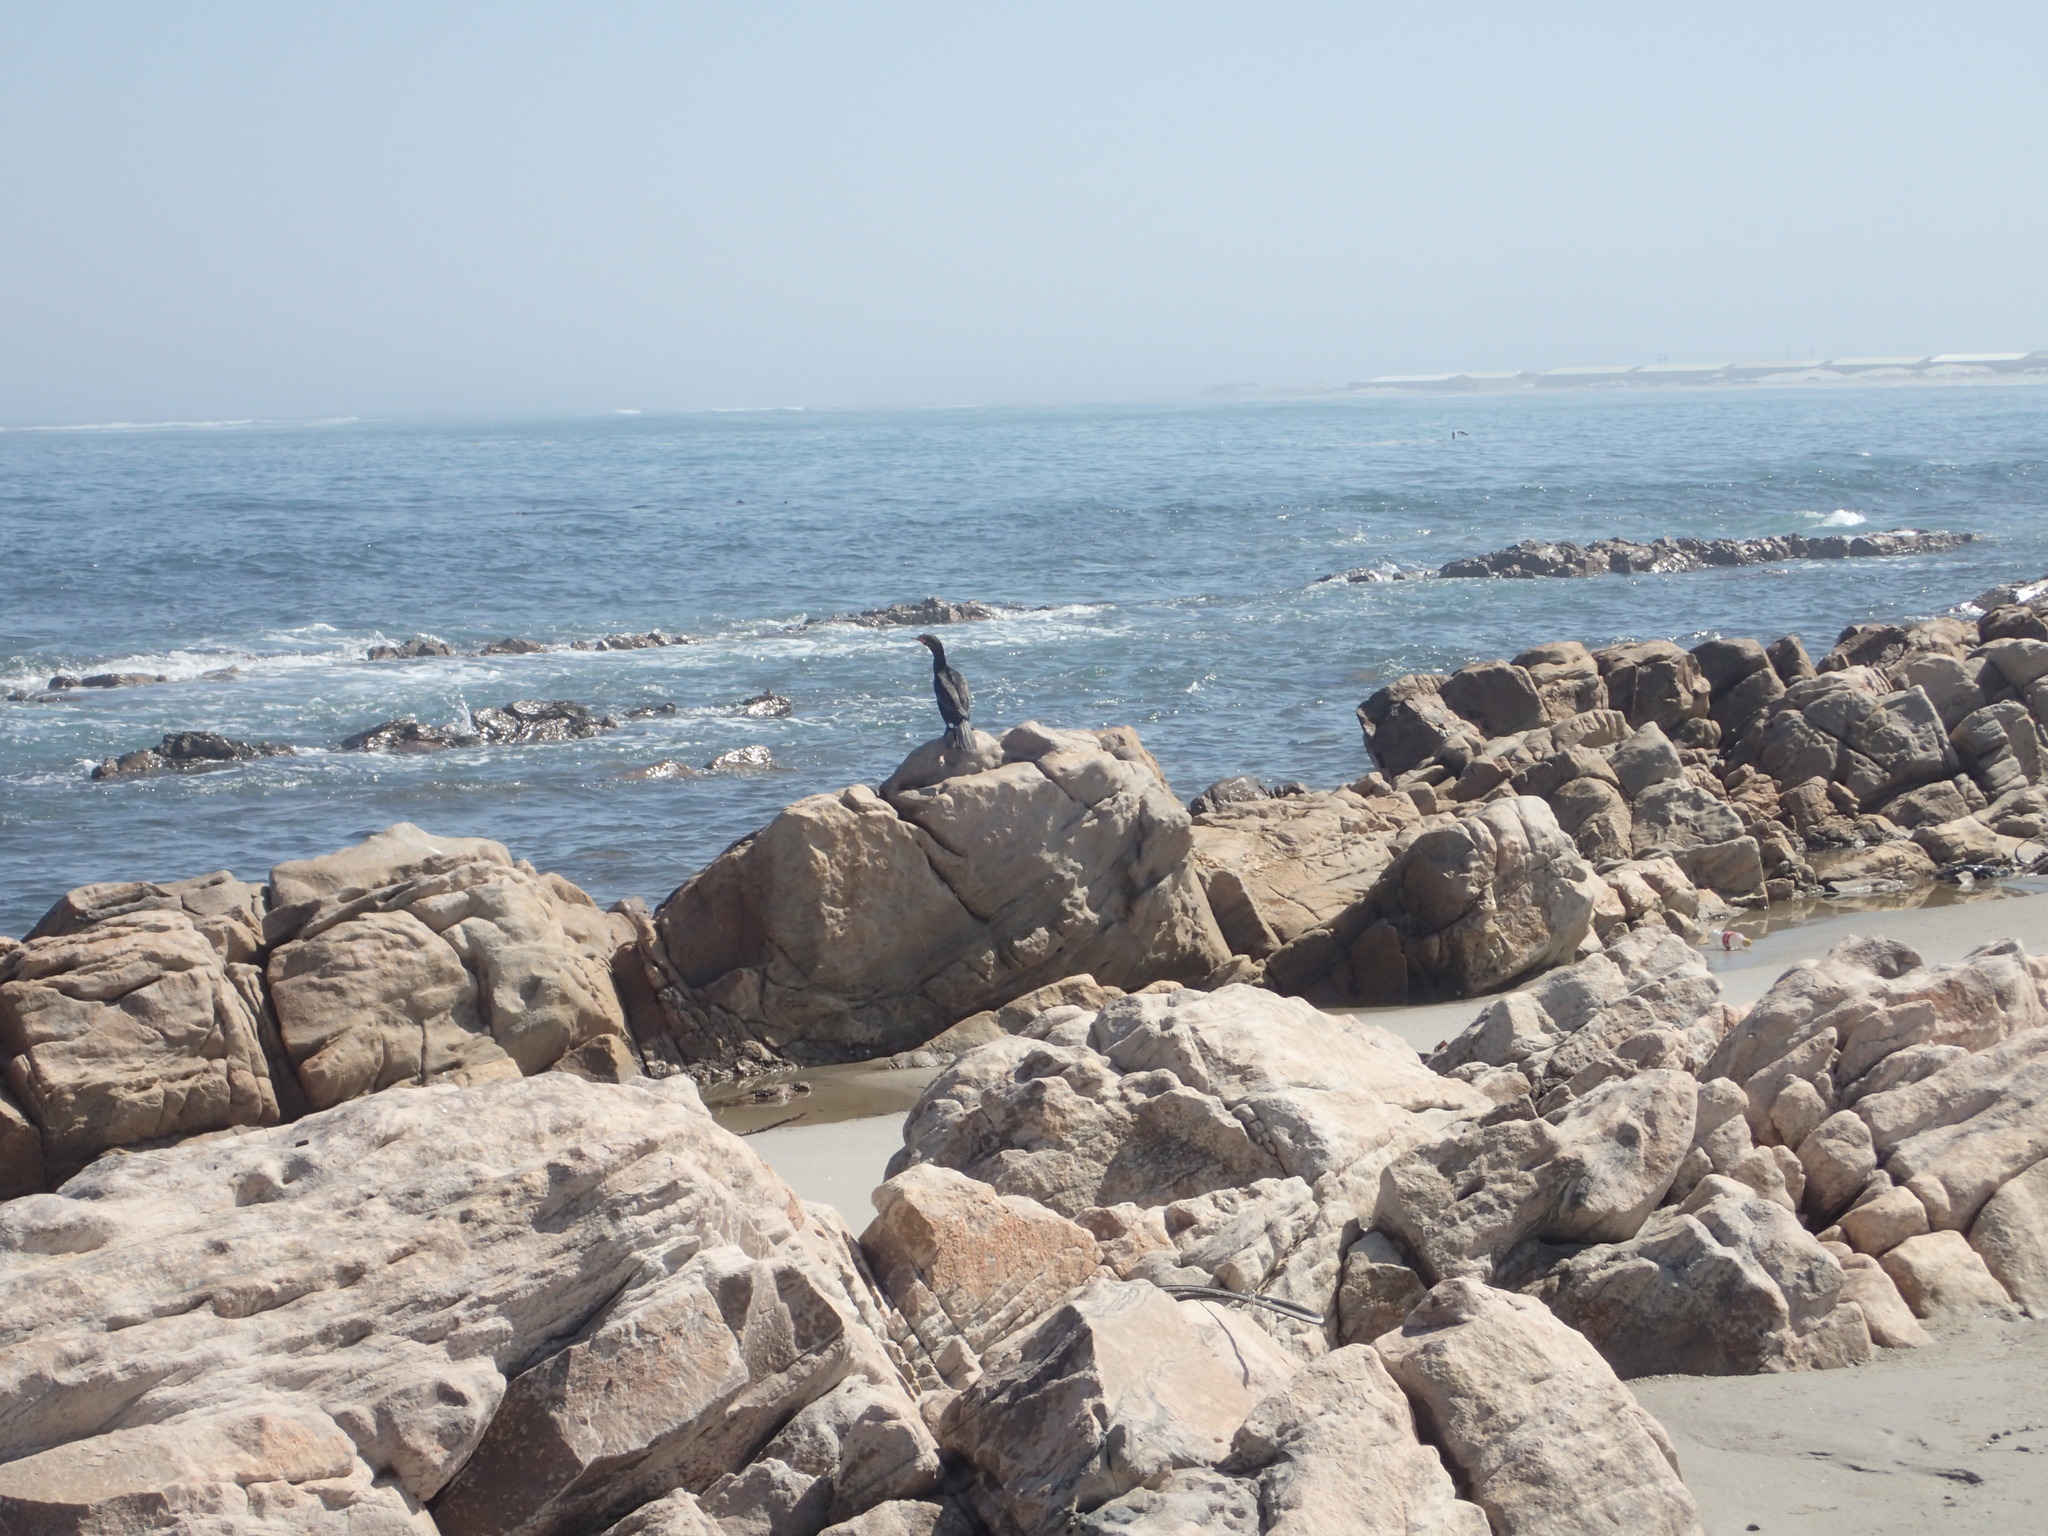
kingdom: Animalia
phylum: Chordata
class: Aves
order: Suliformes
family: Phalacrocoracidae
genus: Phalacrocorax
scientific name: Phalacrocorax capensis
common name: Cape cormorant
